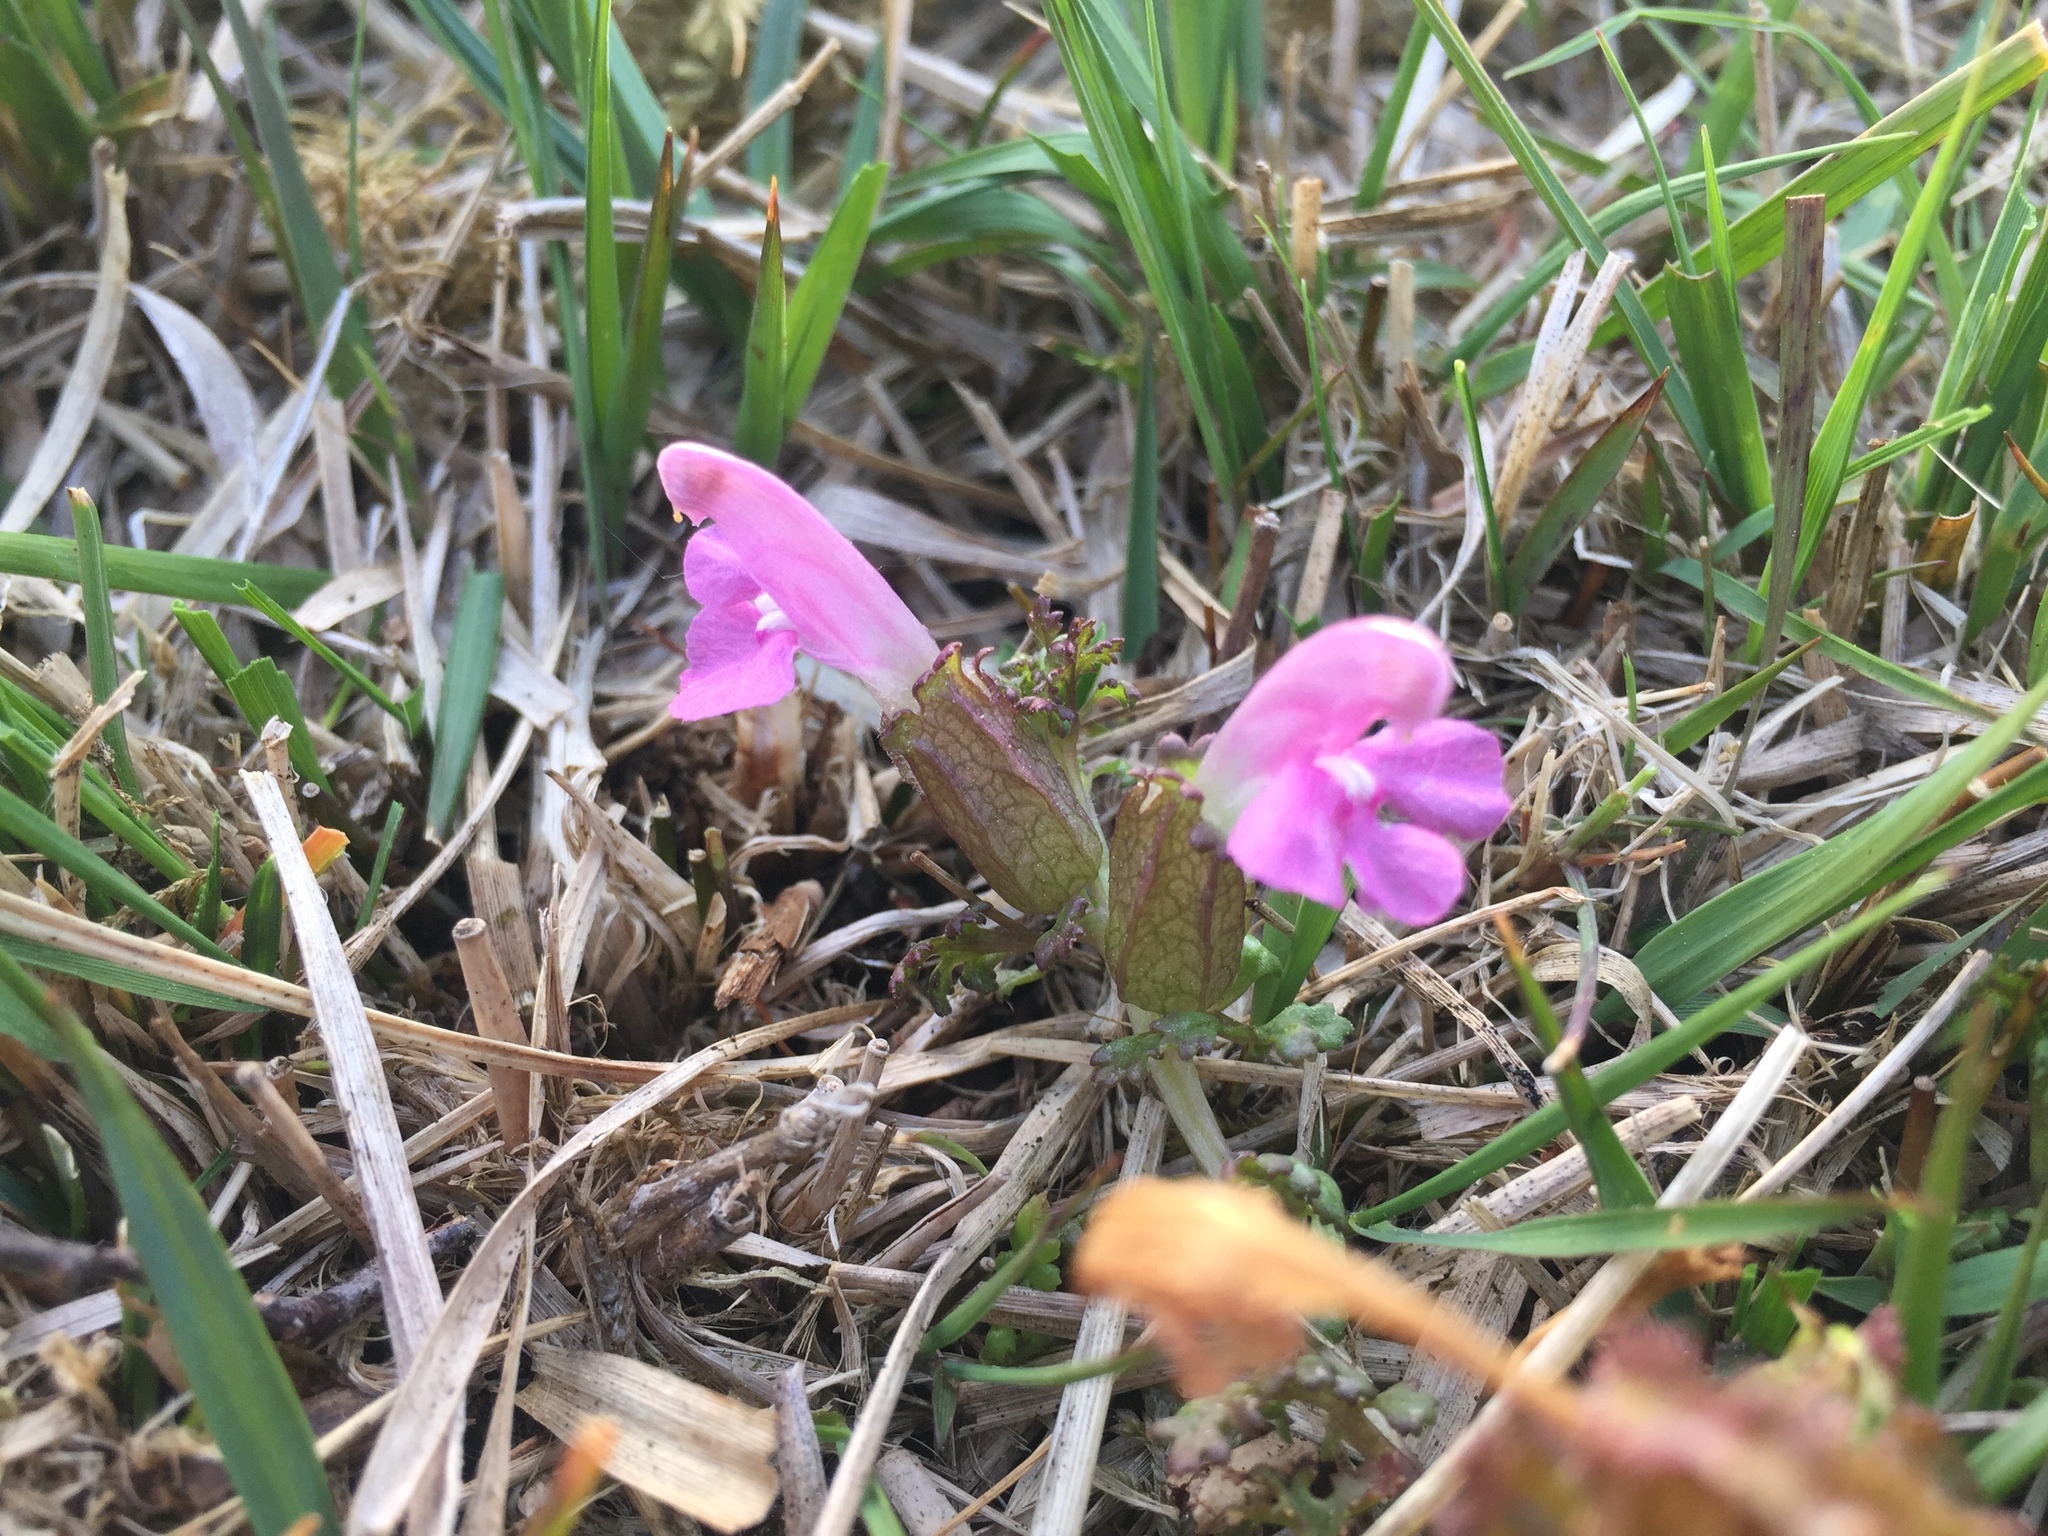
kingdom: Plantae
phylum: Tracheophyta
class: Magnoliopsida
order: Lamiales
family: Orobanchaceae
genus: Pedicularis
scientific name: Pedicularis sylvatica
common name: Lousewort
